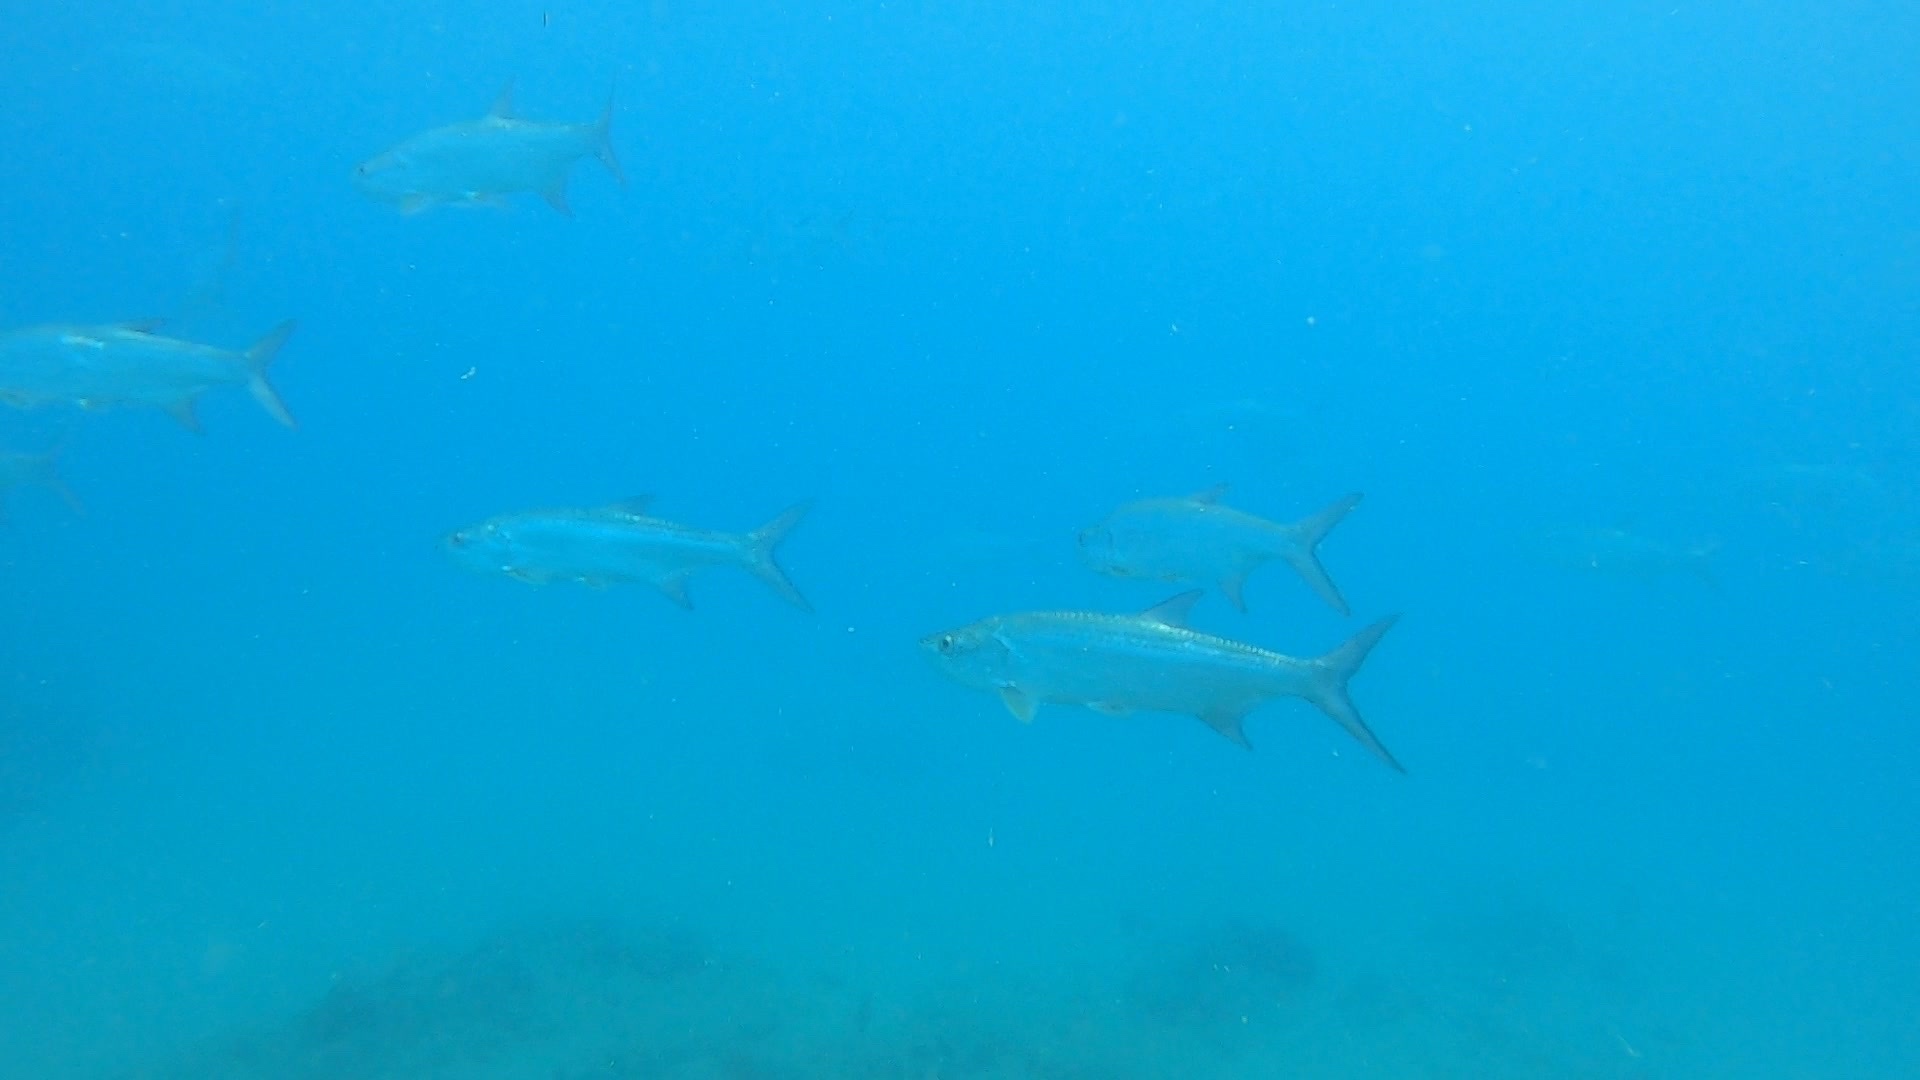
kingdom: Animalia
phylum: Chordata
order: Elopiformes
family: Megalopidae
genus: Megalops
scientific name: Megalops atlanticus
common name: Tarpon
